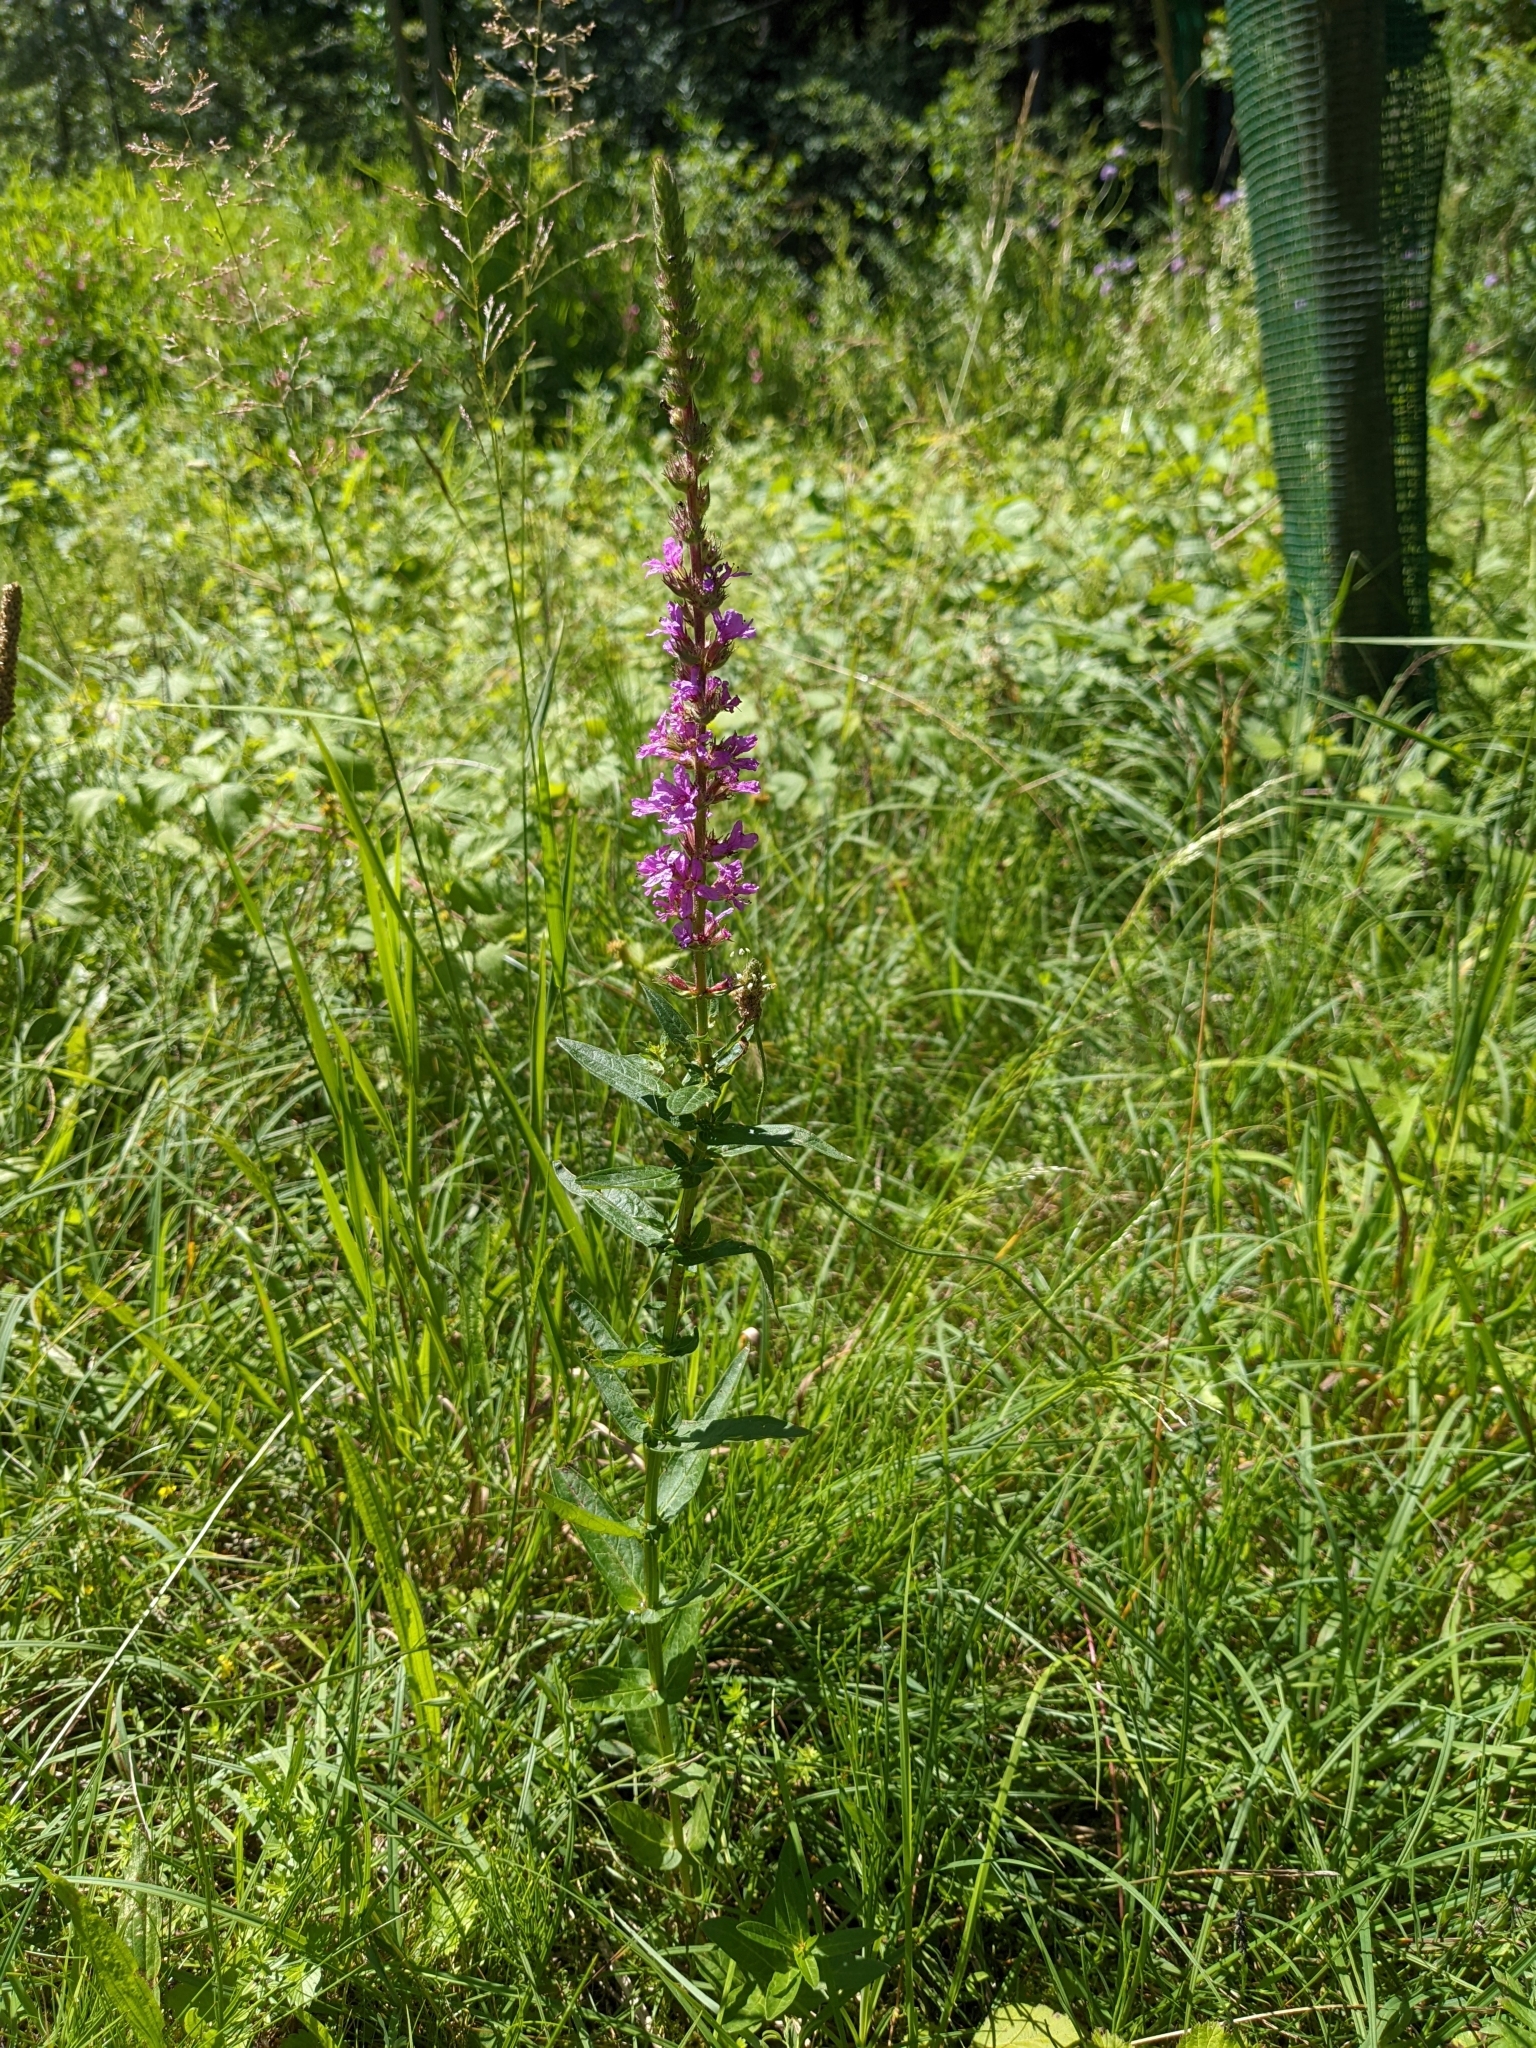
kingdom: Plantae
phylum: Tracheophyta
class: Magnoliopsida
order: Myrtales
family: Lythraceae
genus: Lythrum
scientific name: Lythrum salicaria
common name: Purple loosestrife
